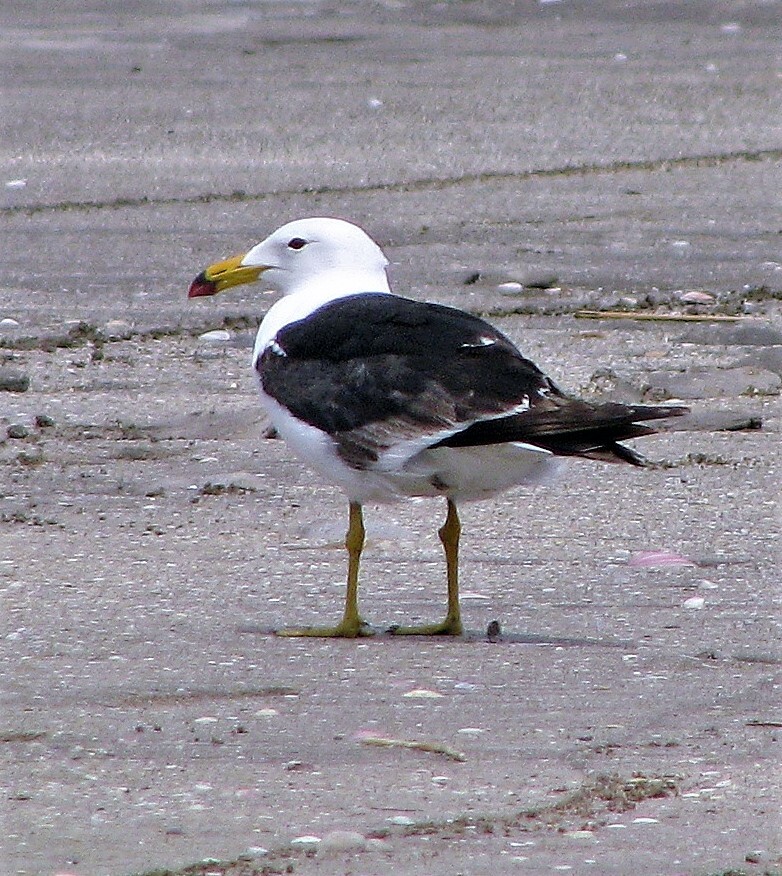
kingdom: Animalia
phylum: Chordata
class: Aves
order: Charadriiformes
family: Laridae
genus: Larus
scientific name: Larus atlanticus
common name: Olrog's gull
